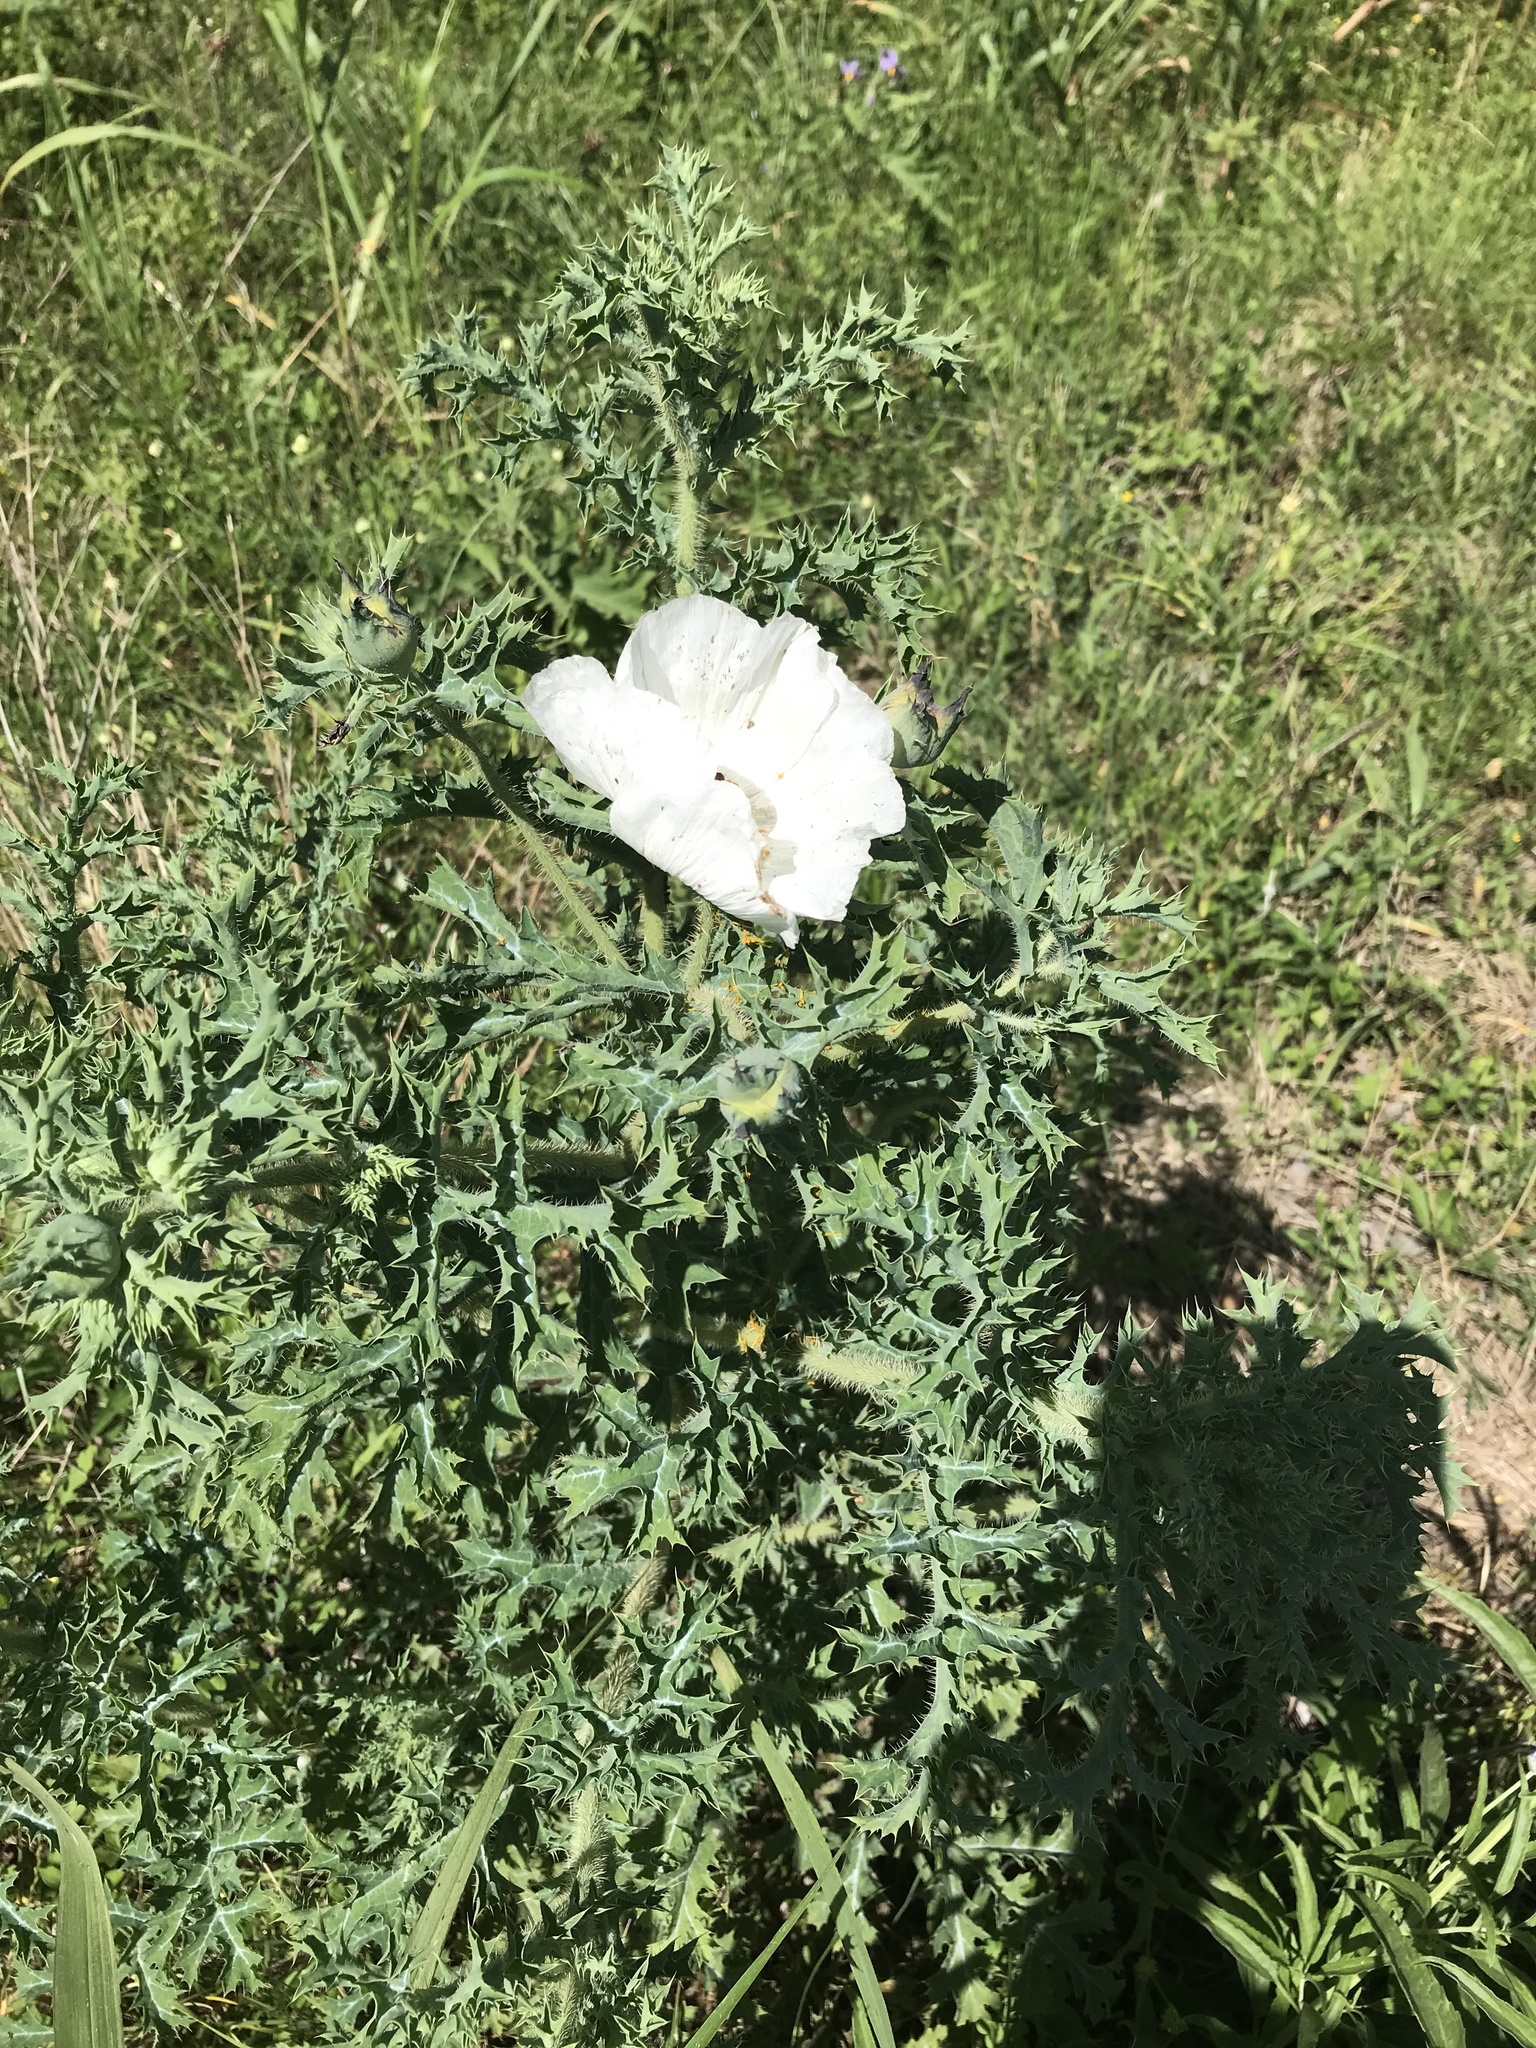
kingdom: Plantae
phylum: Tracheophyta
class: Magnoliopsida
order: Ranunculales
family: Papaveraceae
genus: Argemone
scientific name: Argemone albiflora
